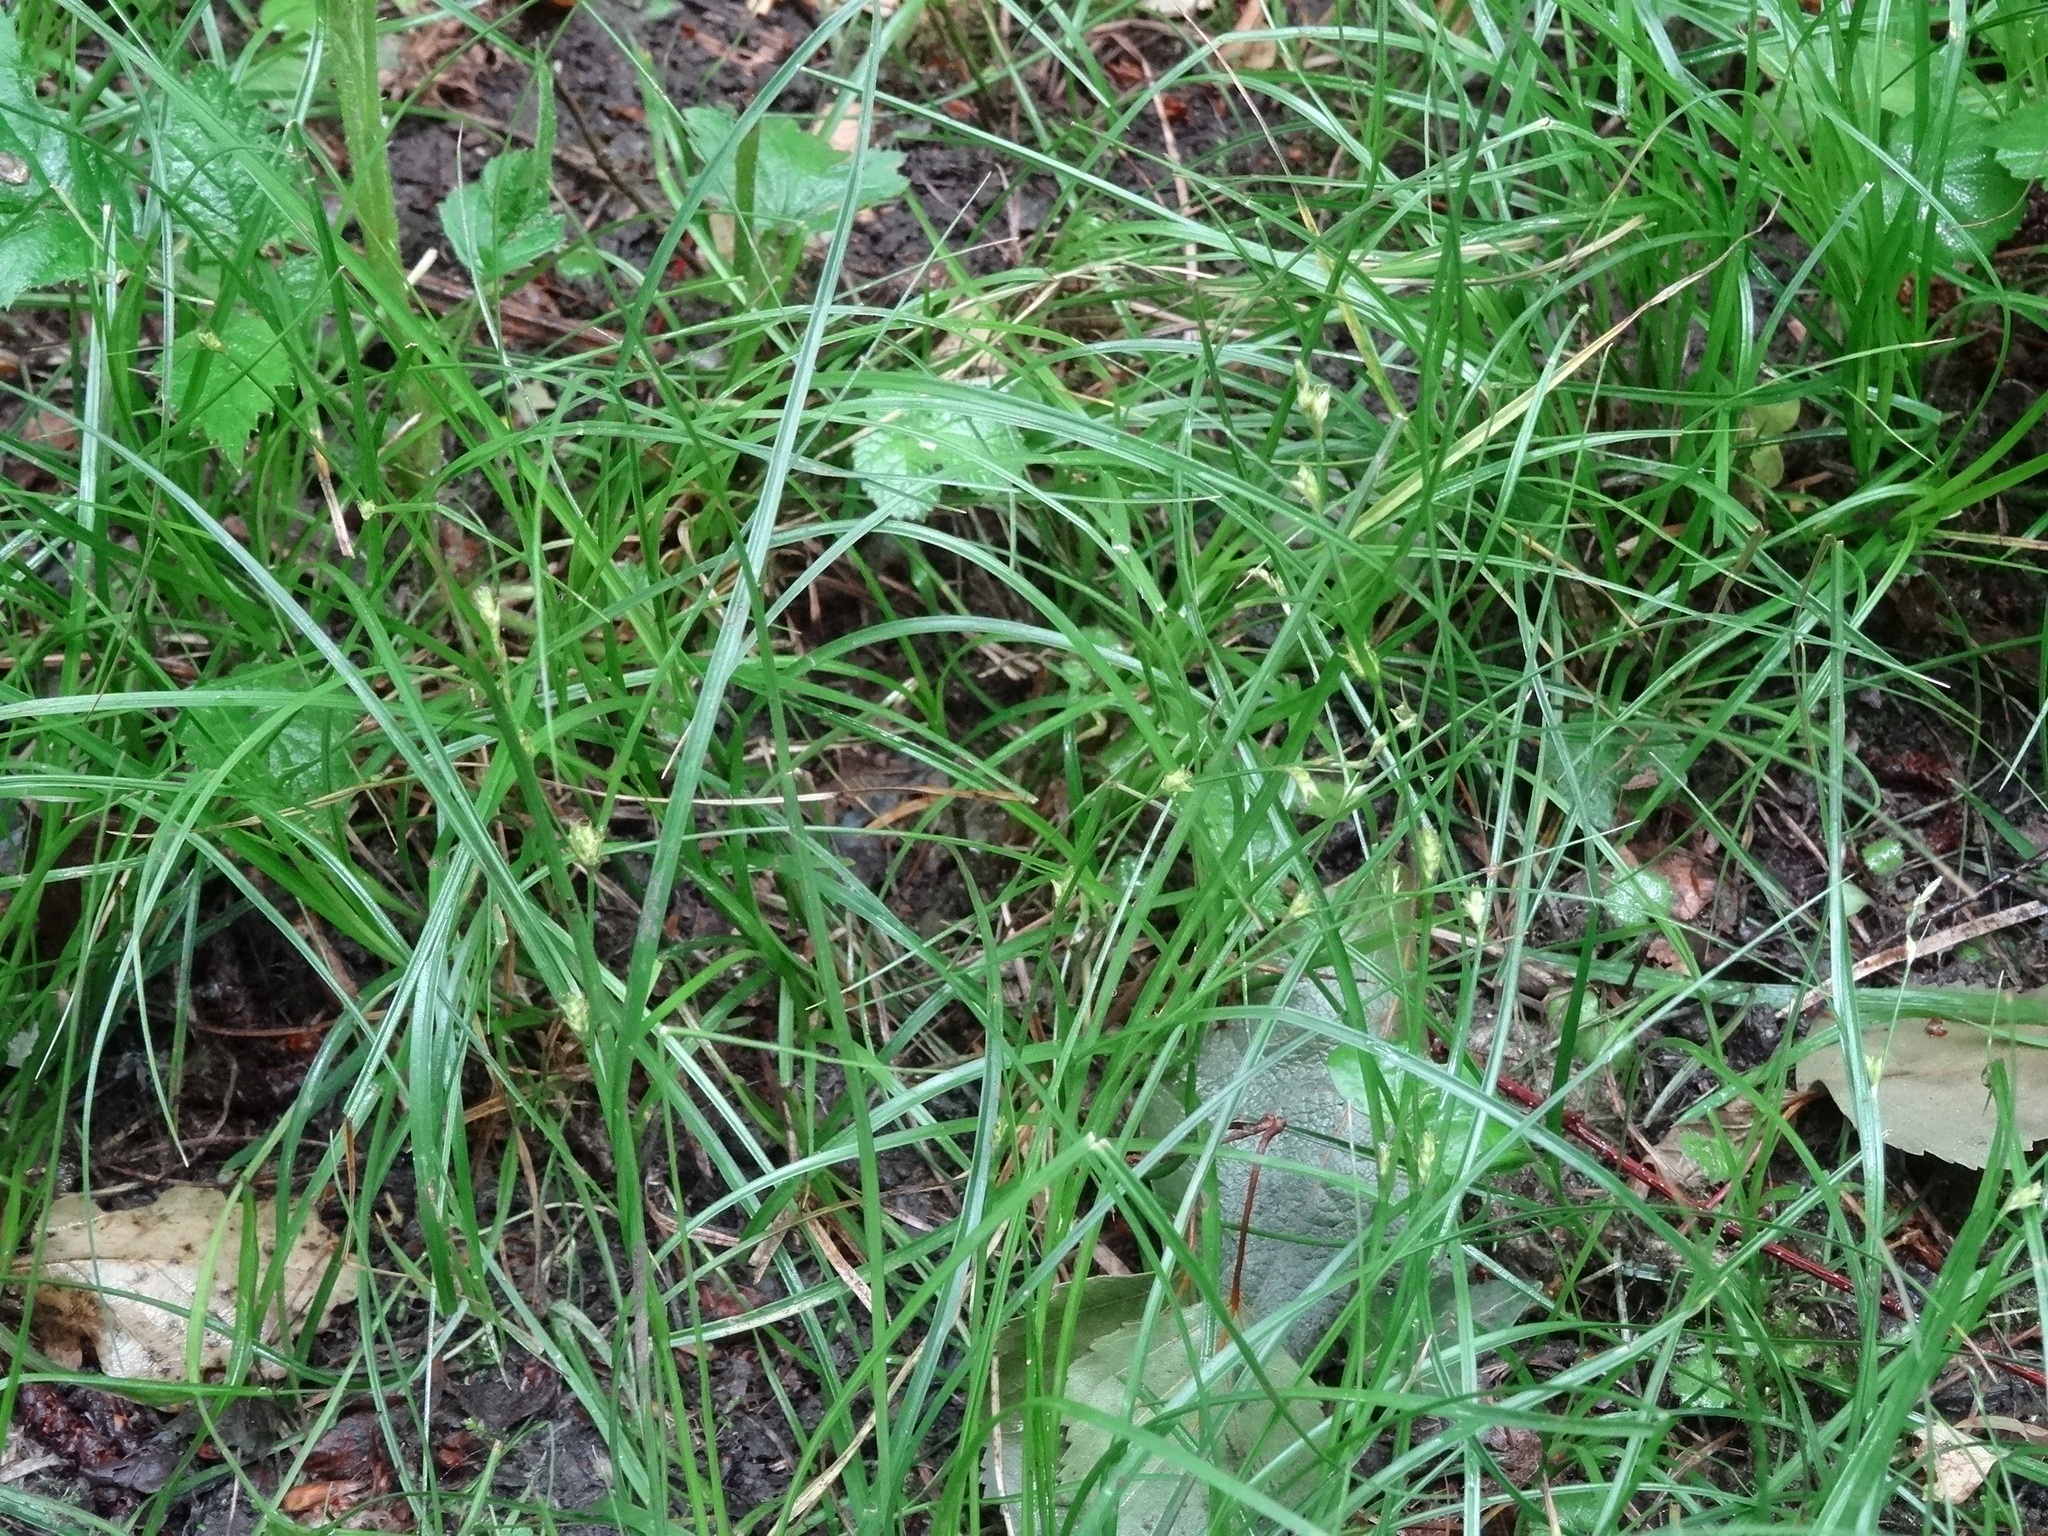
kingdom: Plantae
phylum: Tracheophyta
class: Liliopsida
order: Poales
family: Cyperaceae
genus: Carex
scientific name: Carex remota
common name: Remote sedge
